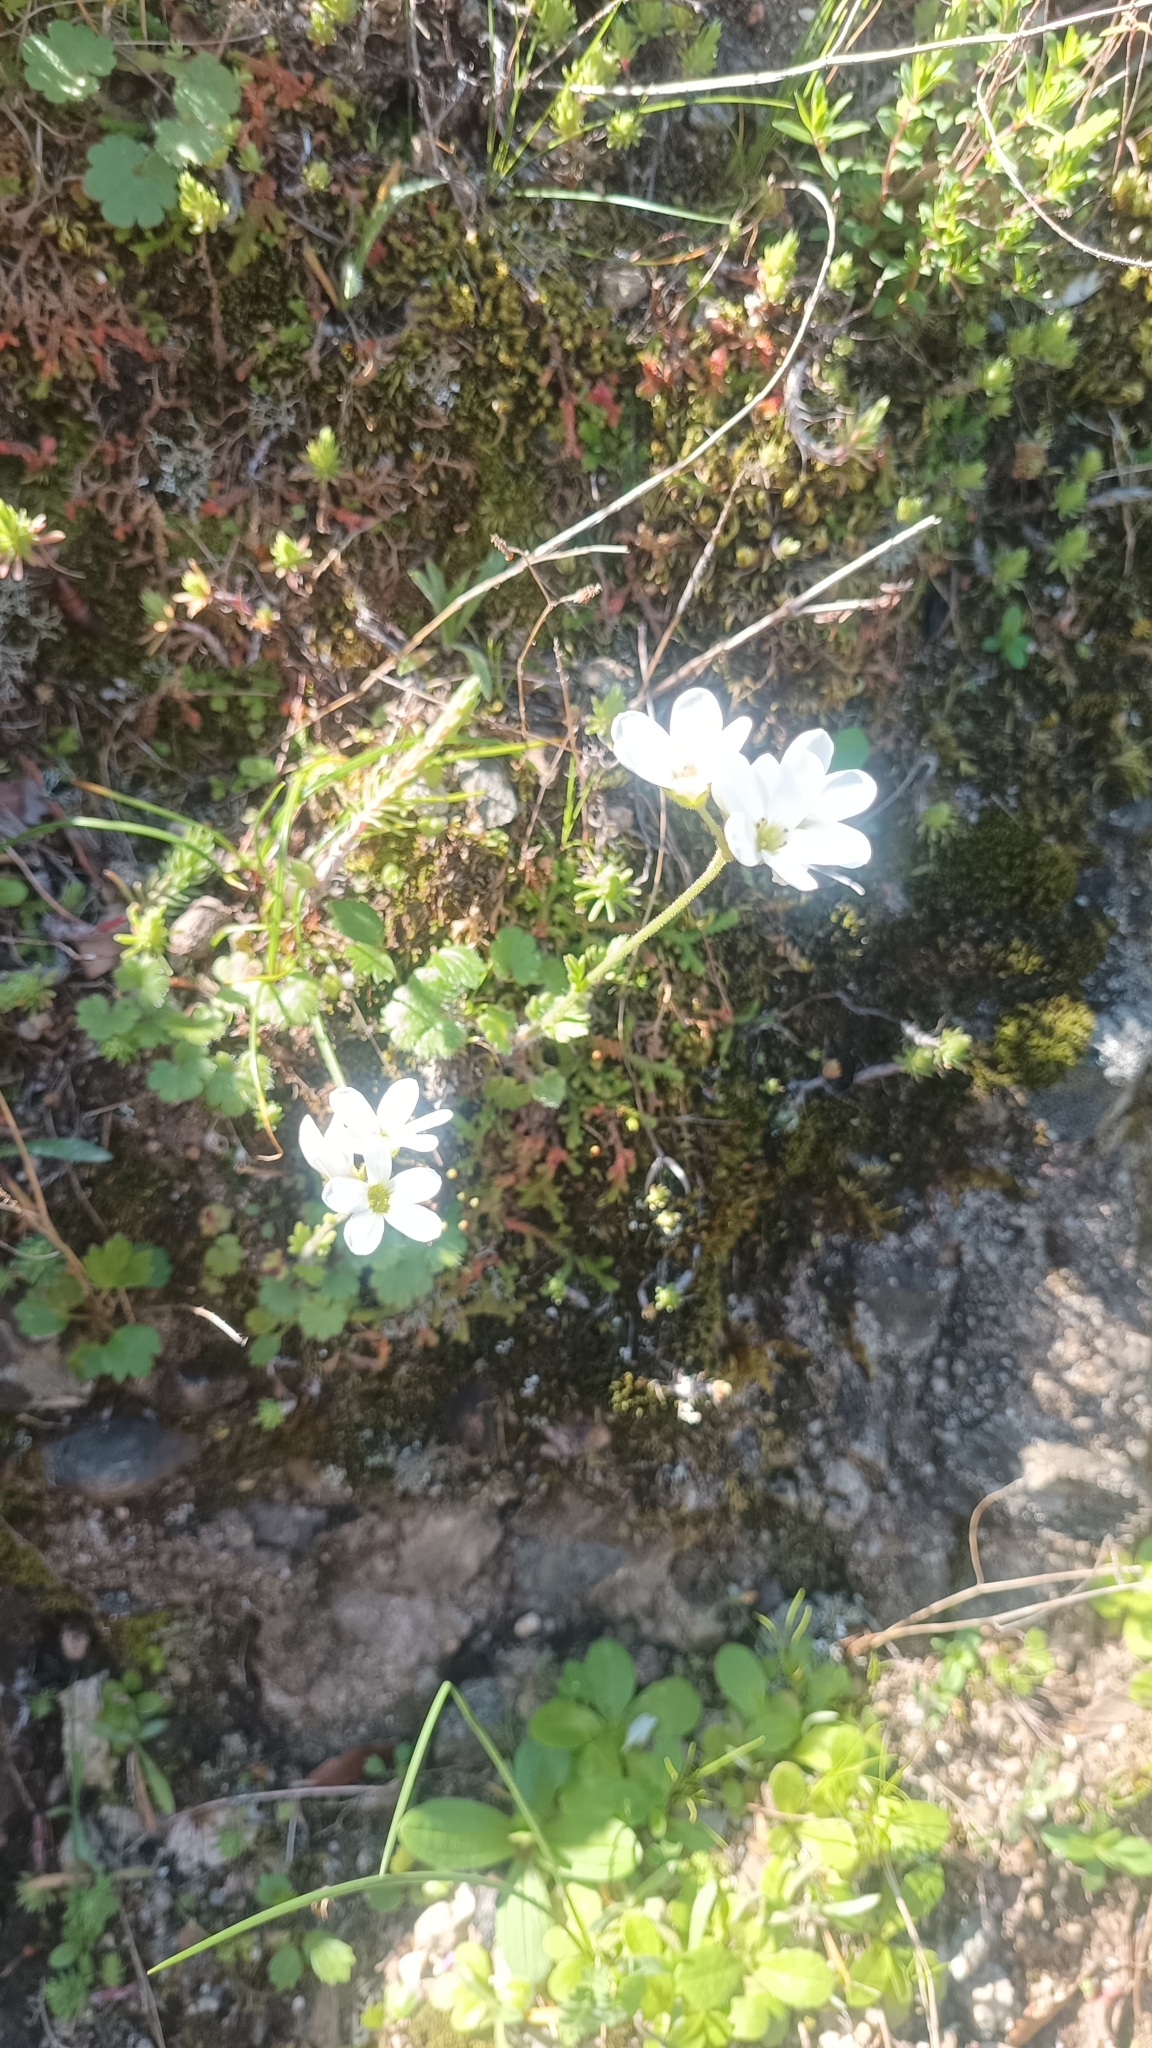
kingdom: Plantae
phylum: Tracheophyta
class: Magnoliopsida
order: Saxifragales
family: Saxifragaceae
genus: Saxifraga
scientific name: Saxifraga carpetana
